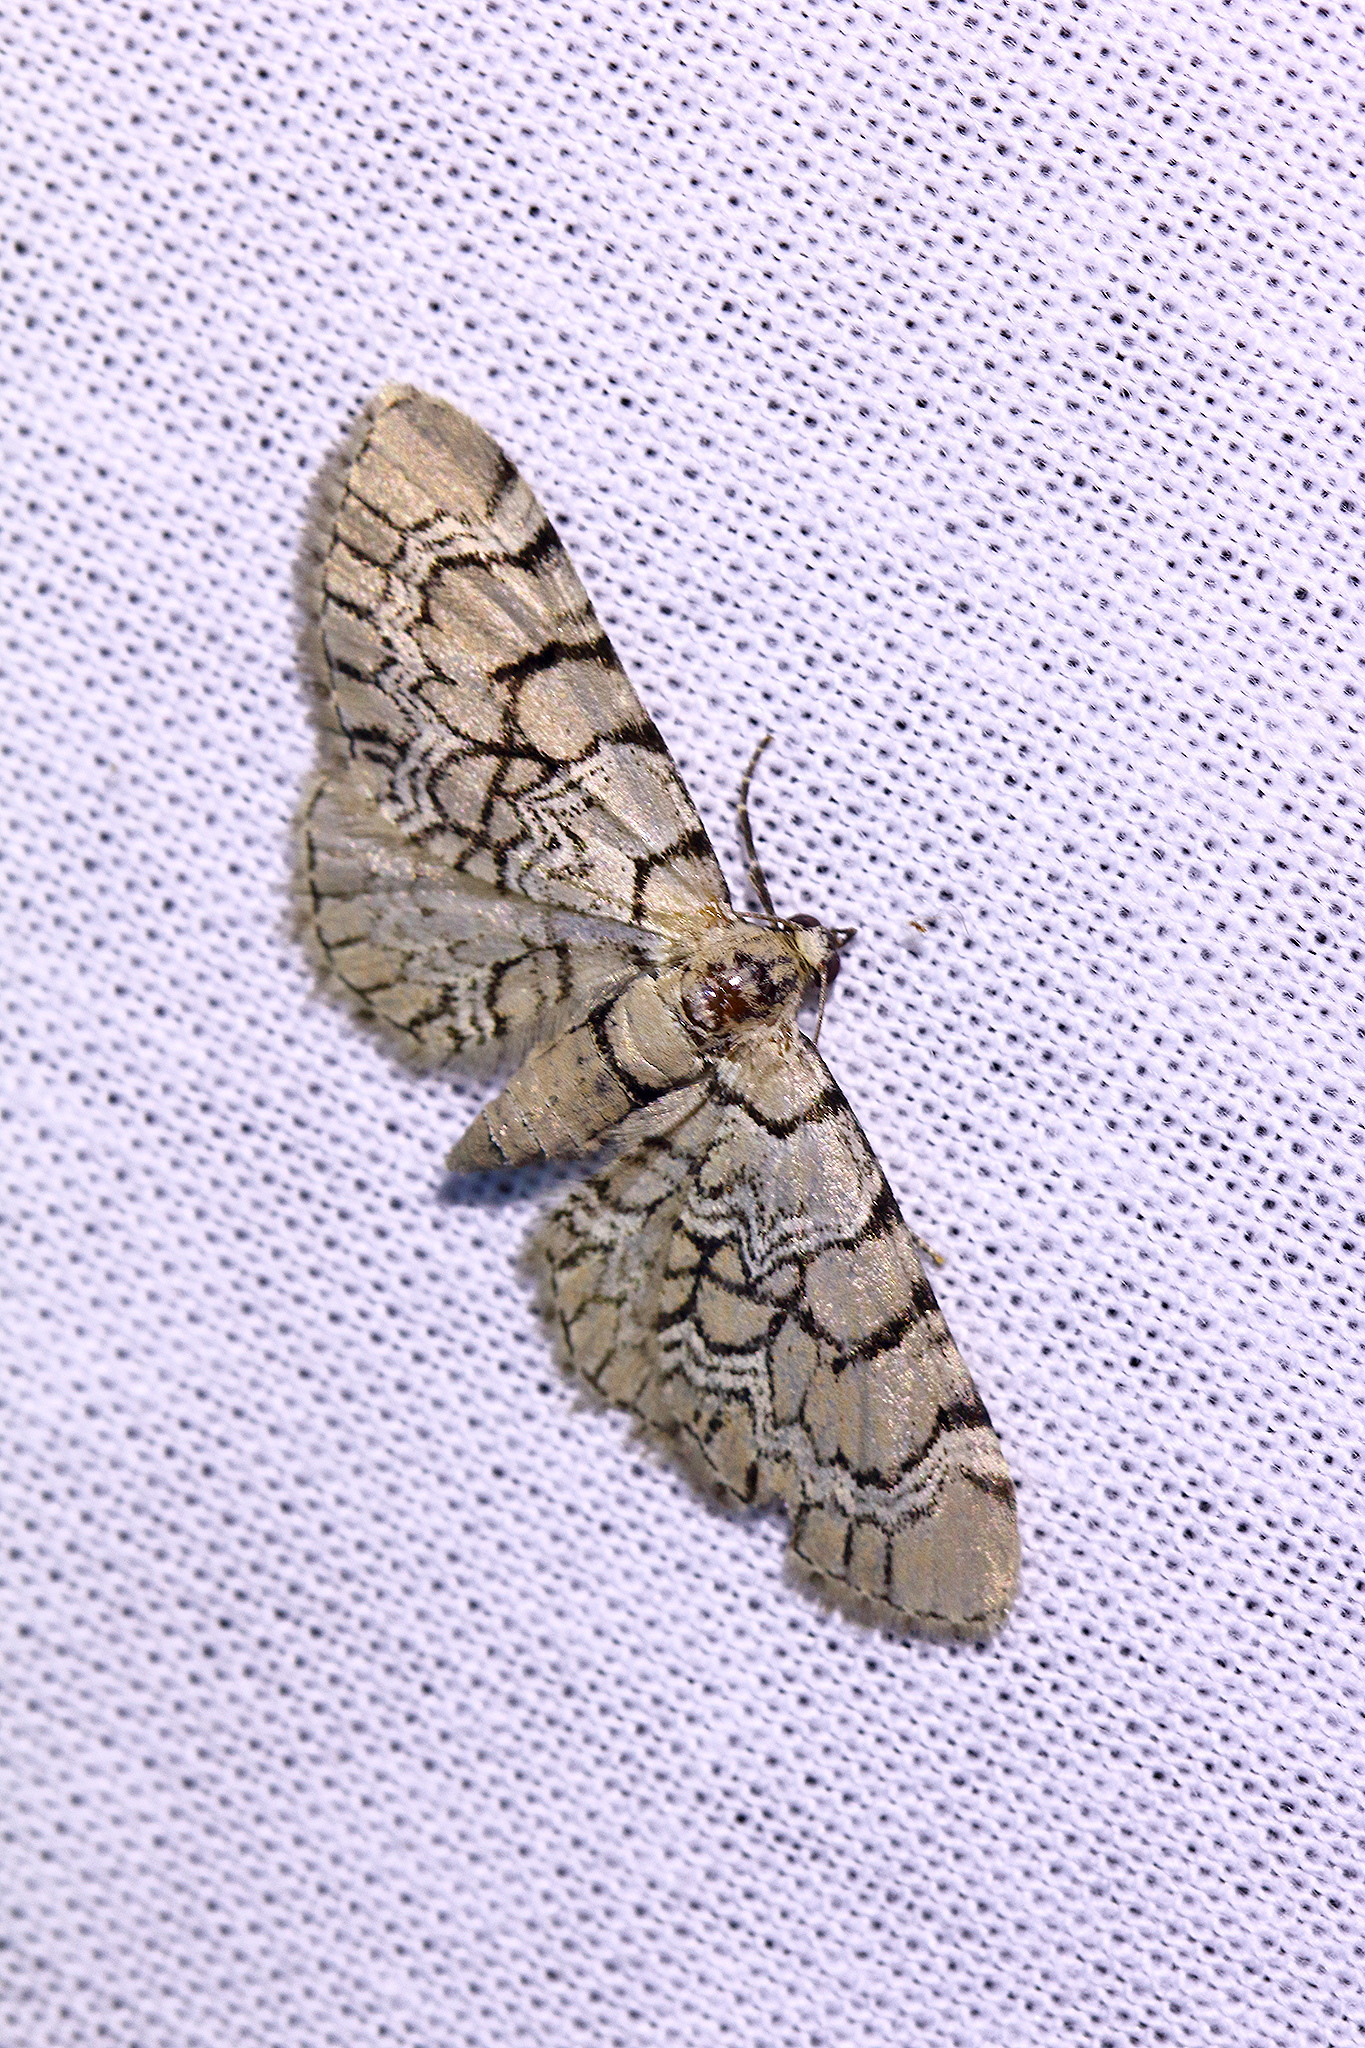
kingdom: Animalia
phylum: Arthropoda
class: Insecta
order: Lepidoptera
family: Geometridae
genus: Eupithecia
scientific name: Eupithecia venosata
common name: Netted pug
